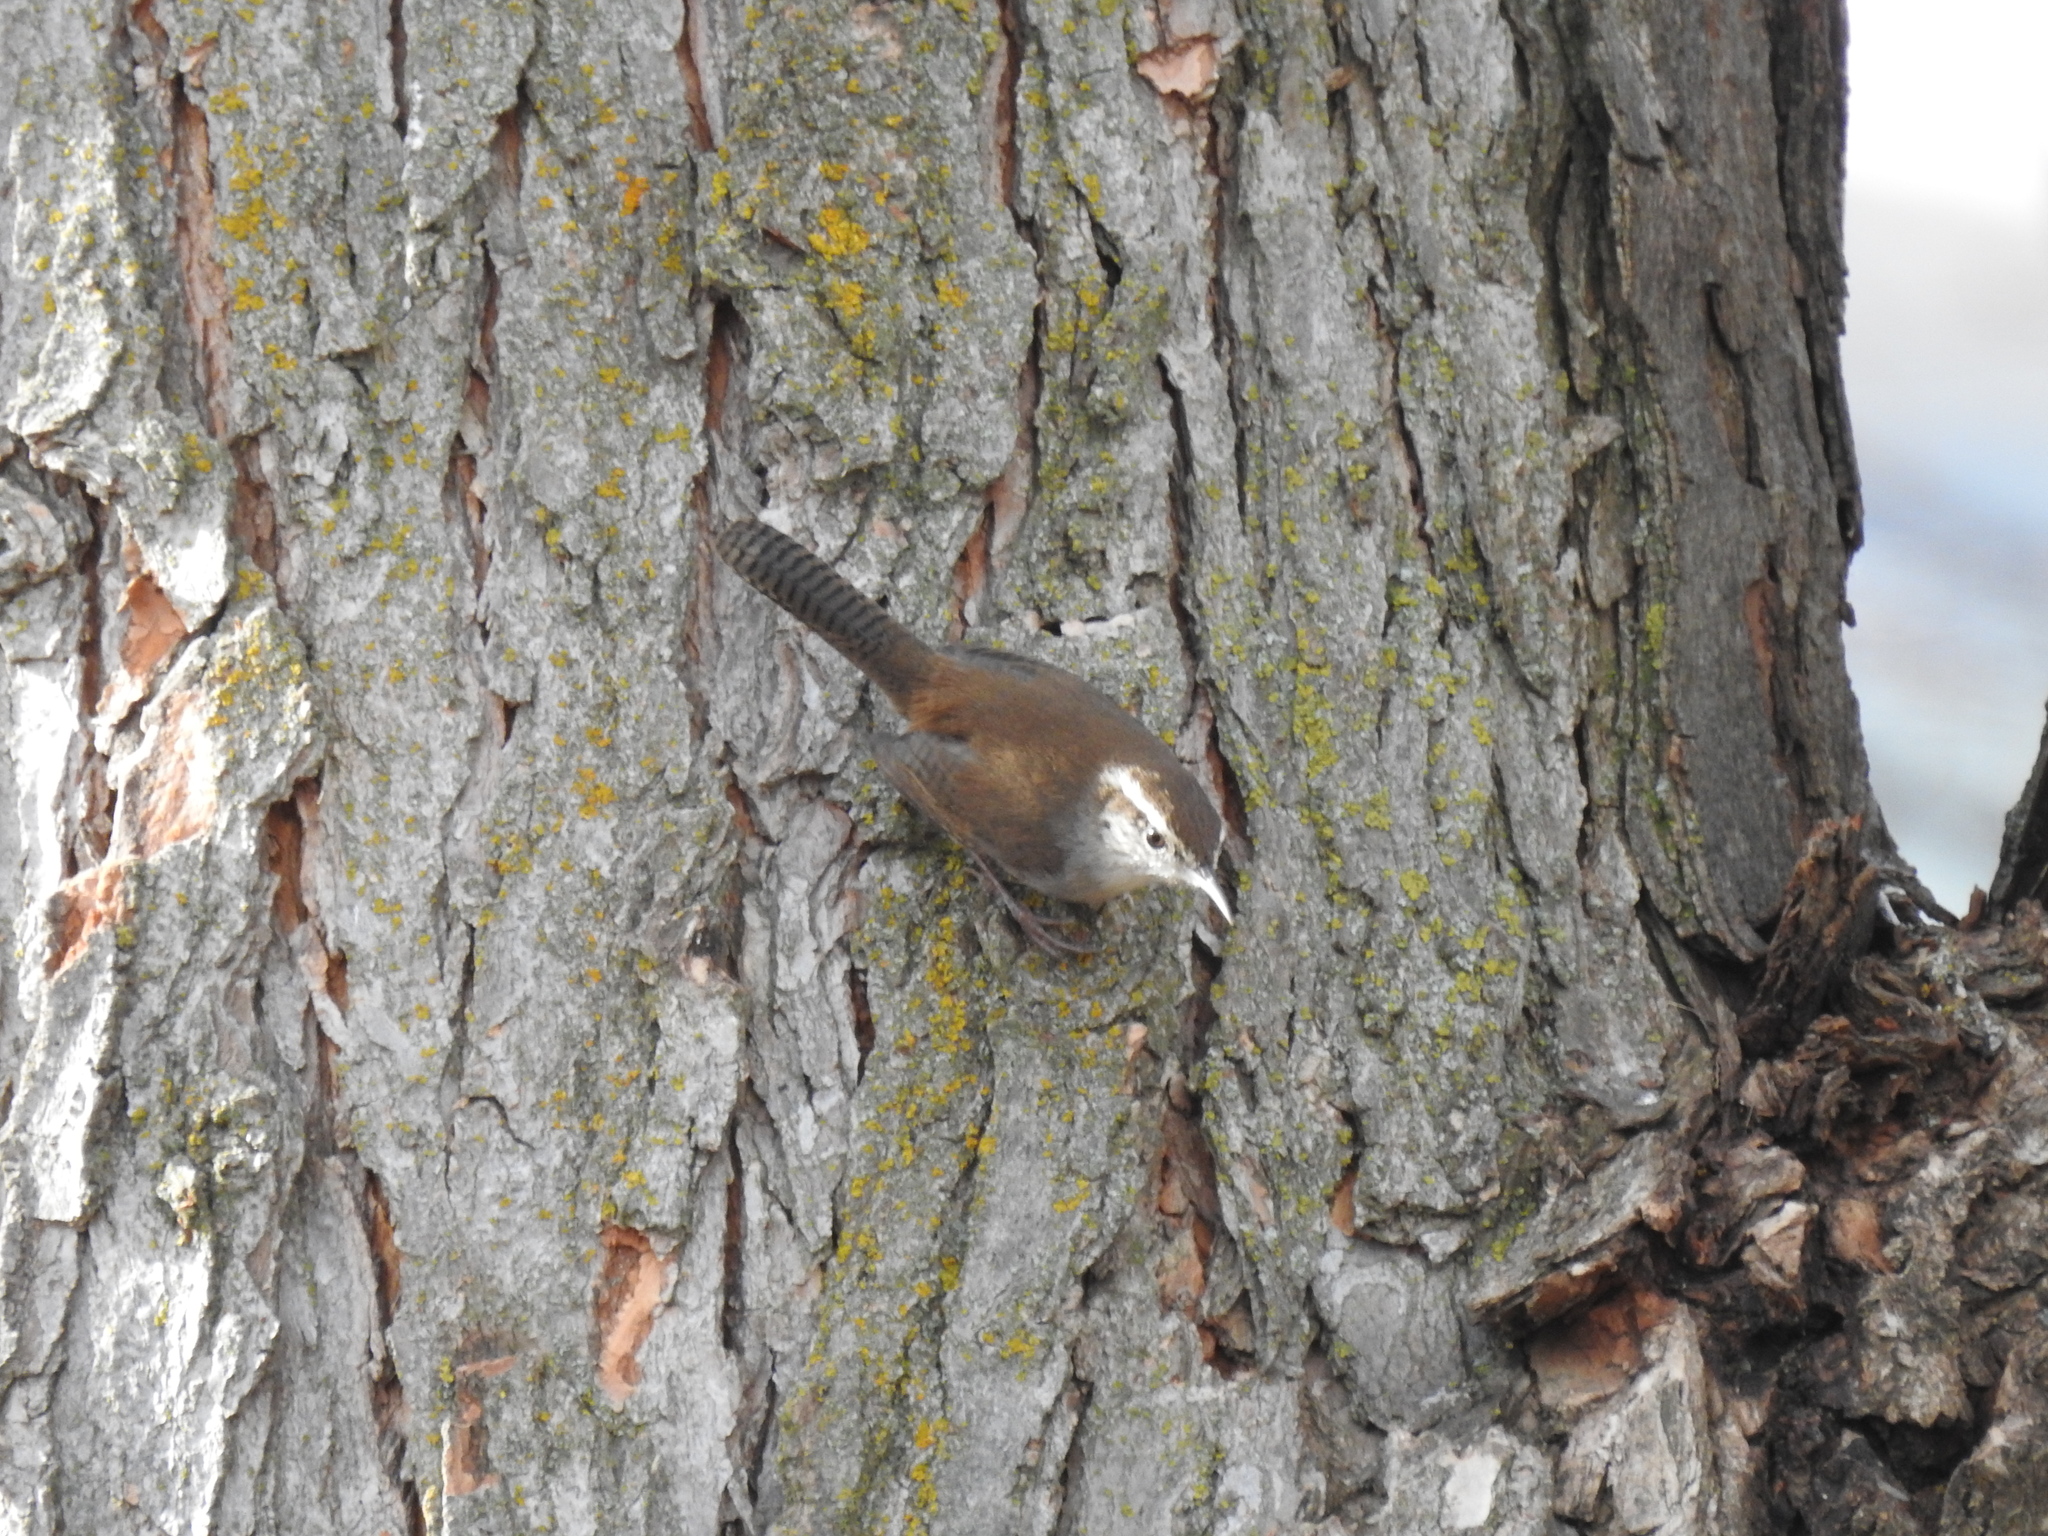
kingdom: Animalia
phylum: Chordata
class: Aves
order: Passeriformes
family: Troglodytidae
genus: Thryomanes
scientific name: Thryomanes bewickii
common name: Bewick's wren
